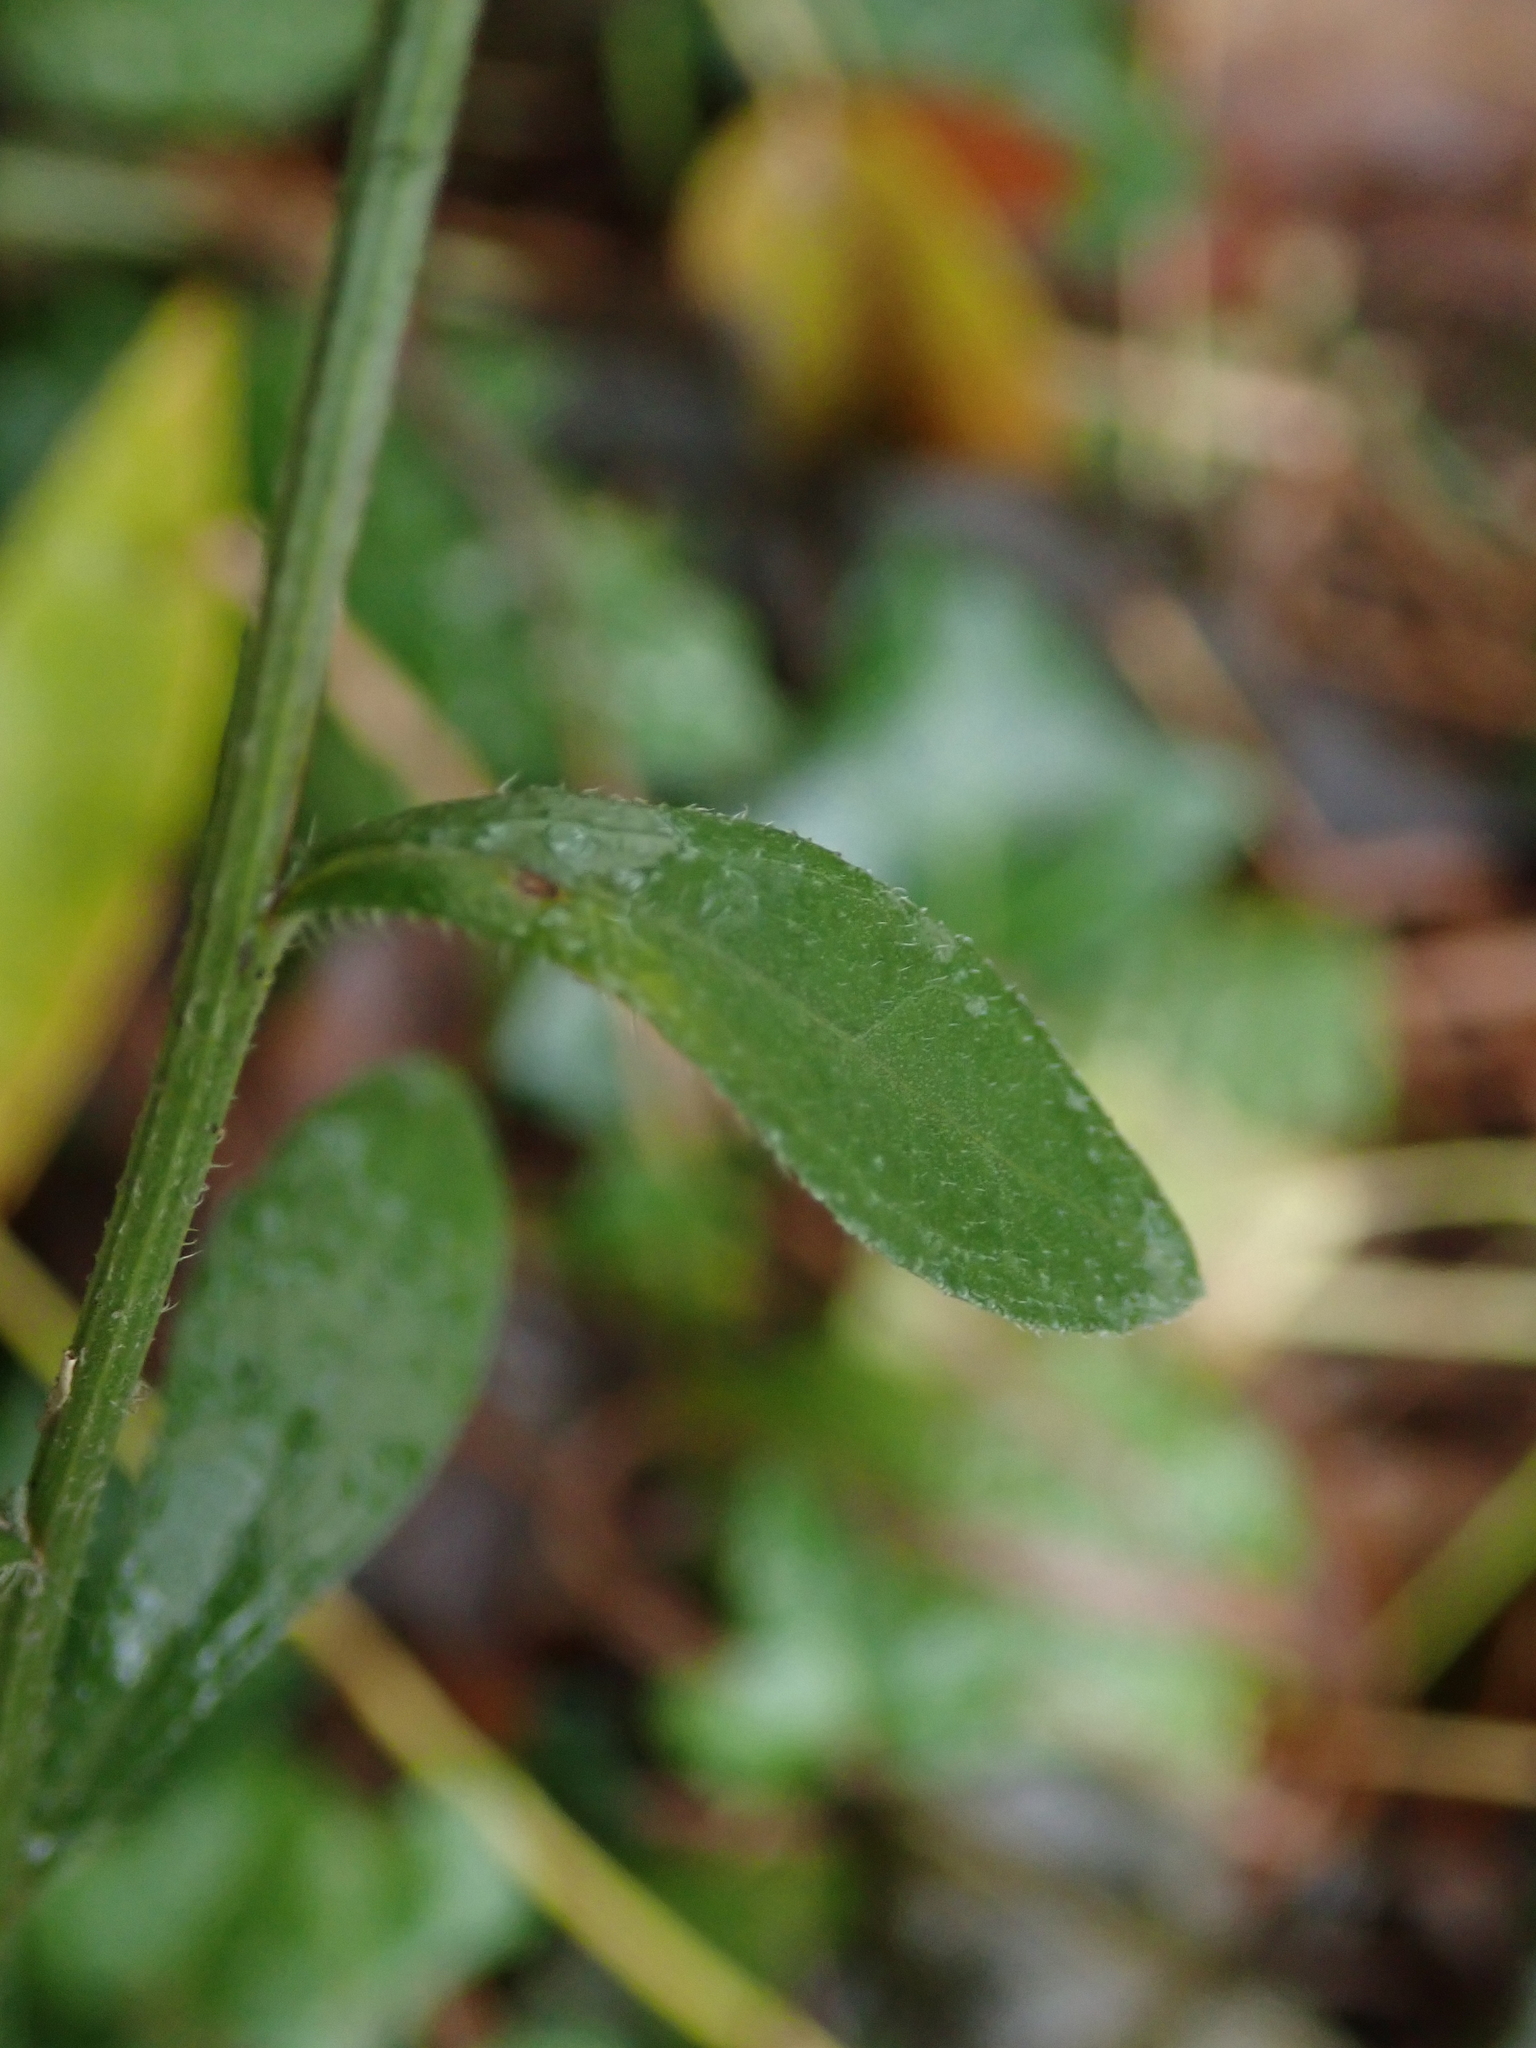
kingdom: Plantae
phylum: Tracheophyta
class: Magnoliopsida
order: Asterales
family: Asteraceae
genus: Erigeron
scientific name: Erigeron annuus
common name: Tall fleabane
